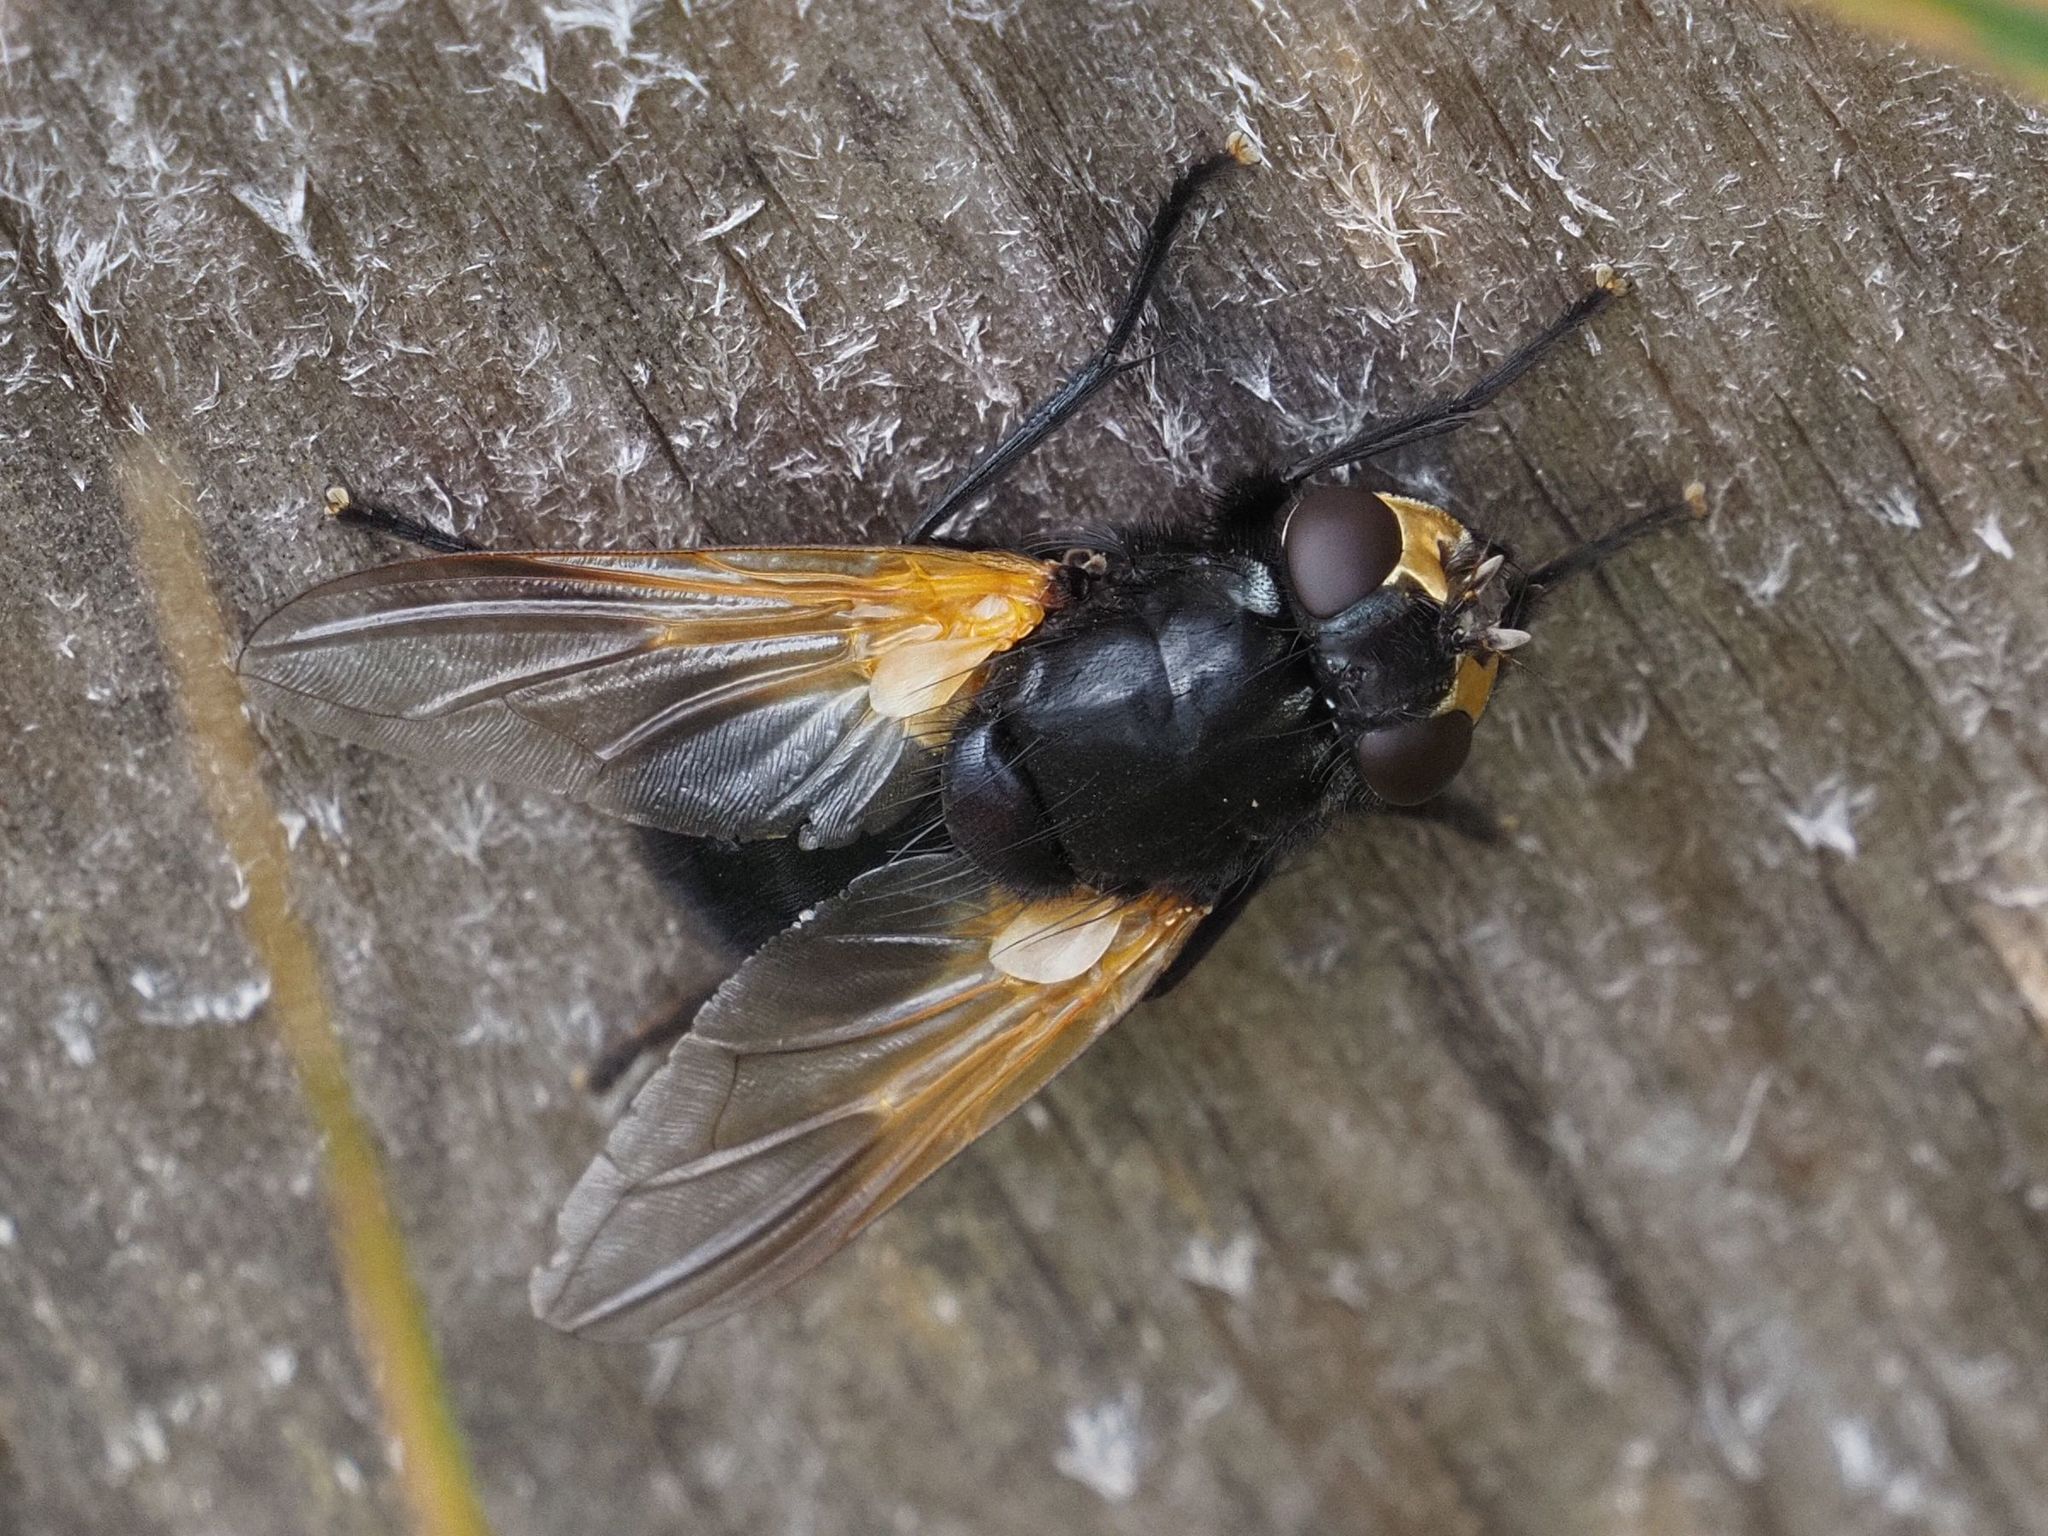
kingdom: Animalia
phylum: Arthropoda
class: Insecta
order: Diptera
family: Muscidae
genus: Mesembrina
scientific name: Mesembrina meridiana
